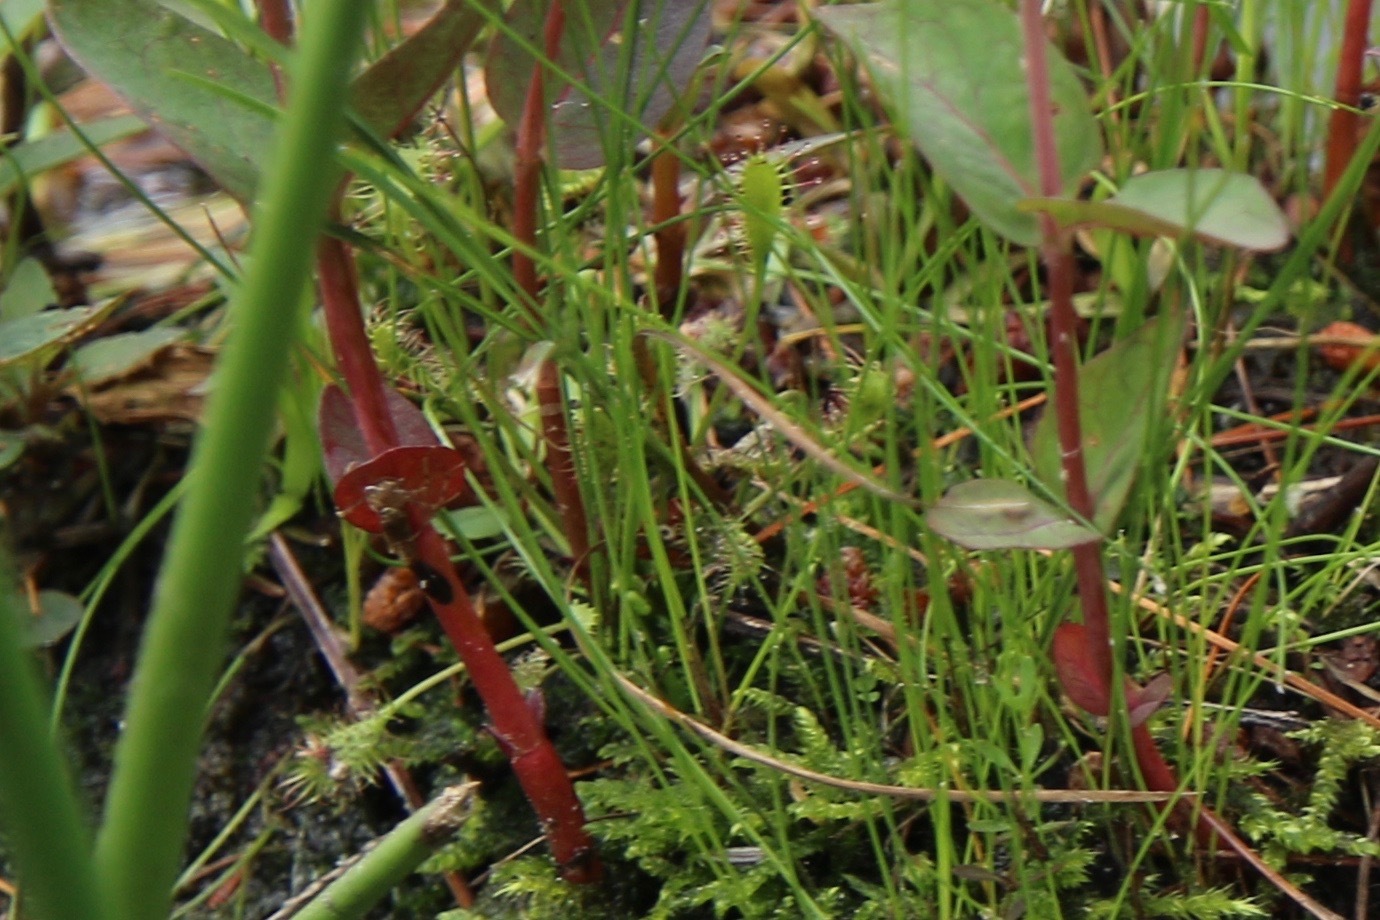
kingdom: Plantae
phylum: Tracheophyta
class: Magnoliopsida
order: Caryophyllales
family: Droseraceae
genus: Drosera
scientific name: Drosera intermedia
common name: Oblong-leaved sundew
